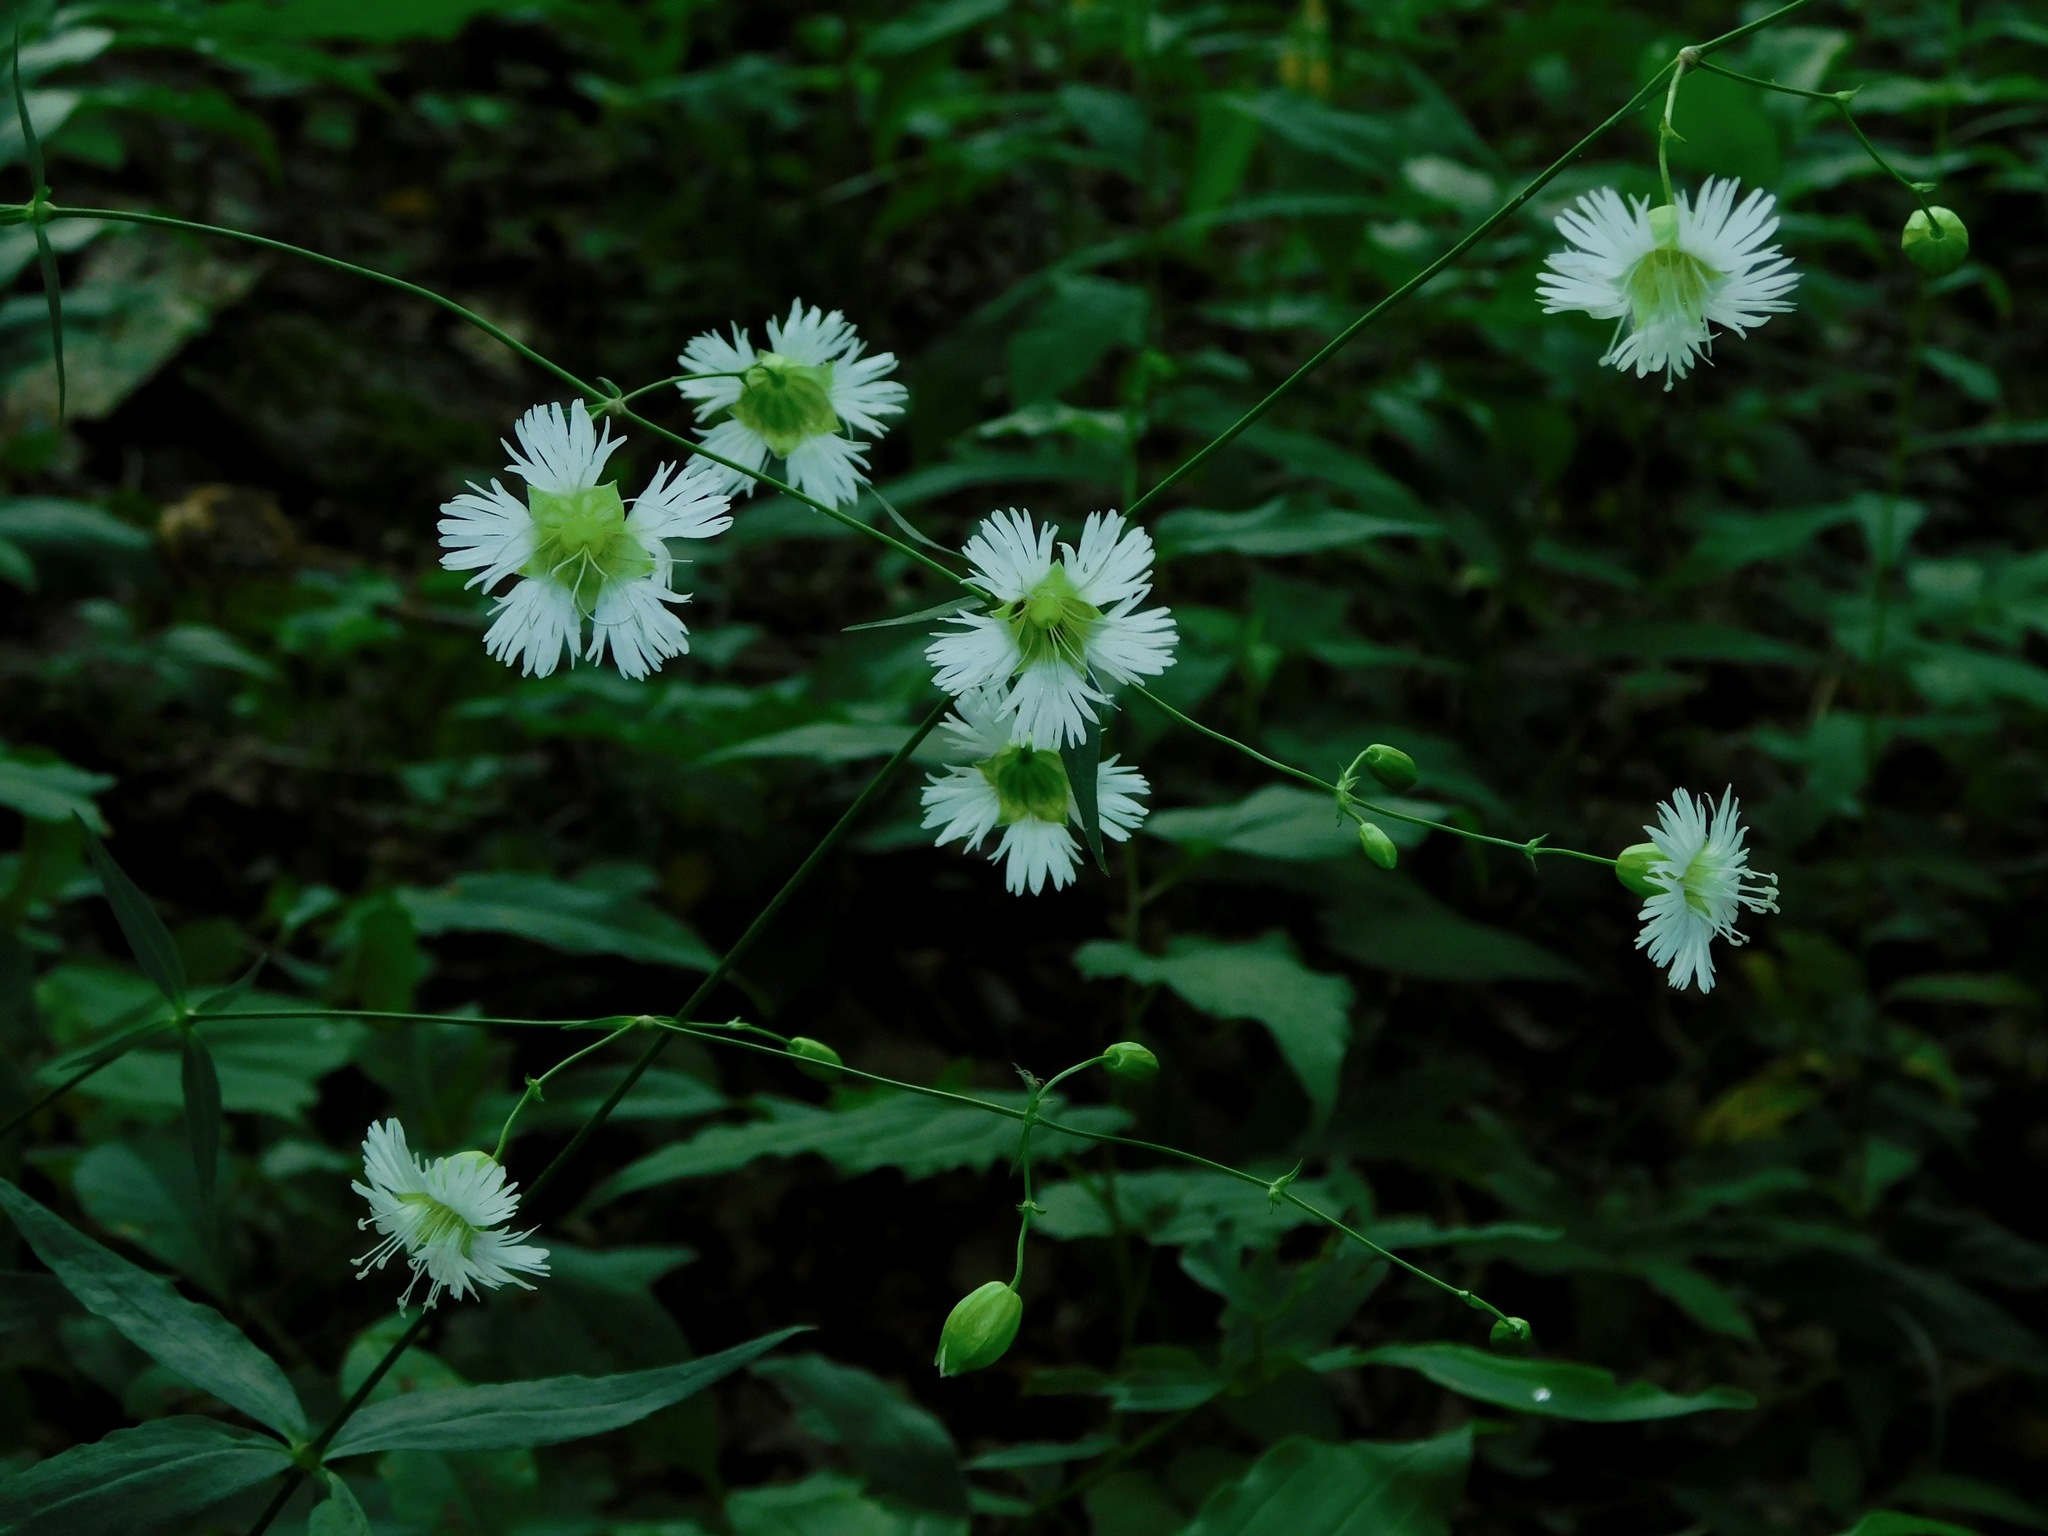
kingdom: Plantae
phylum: Tracheophyta
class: Magnoliopsida
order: Caryophyllales
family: Caryophyllaceae
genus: Silene
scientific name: Silene stellata
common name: Starry campion
